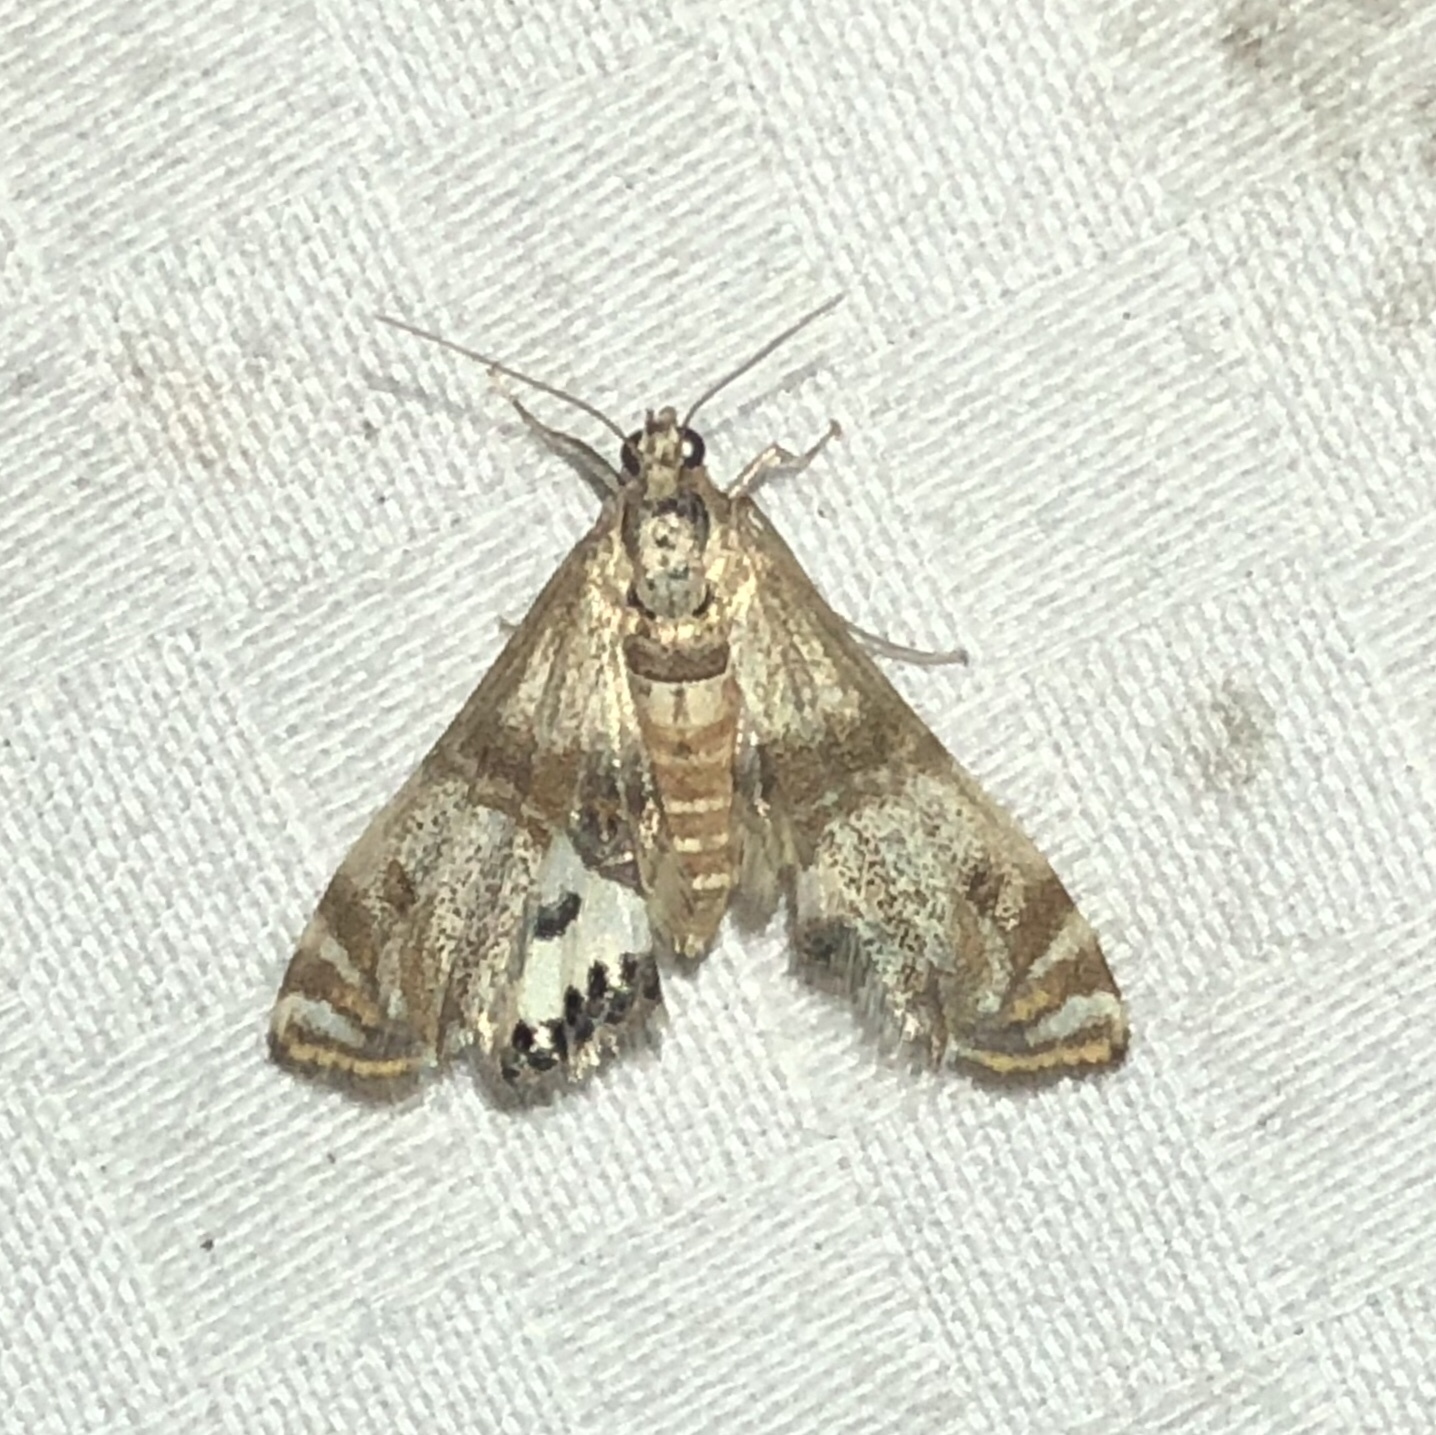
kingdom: Animalia
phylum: Arthropoda
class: Insecta
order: Lepidoptera
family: Crambidae
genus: Petrophila
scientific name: Petrophila bifascialis
